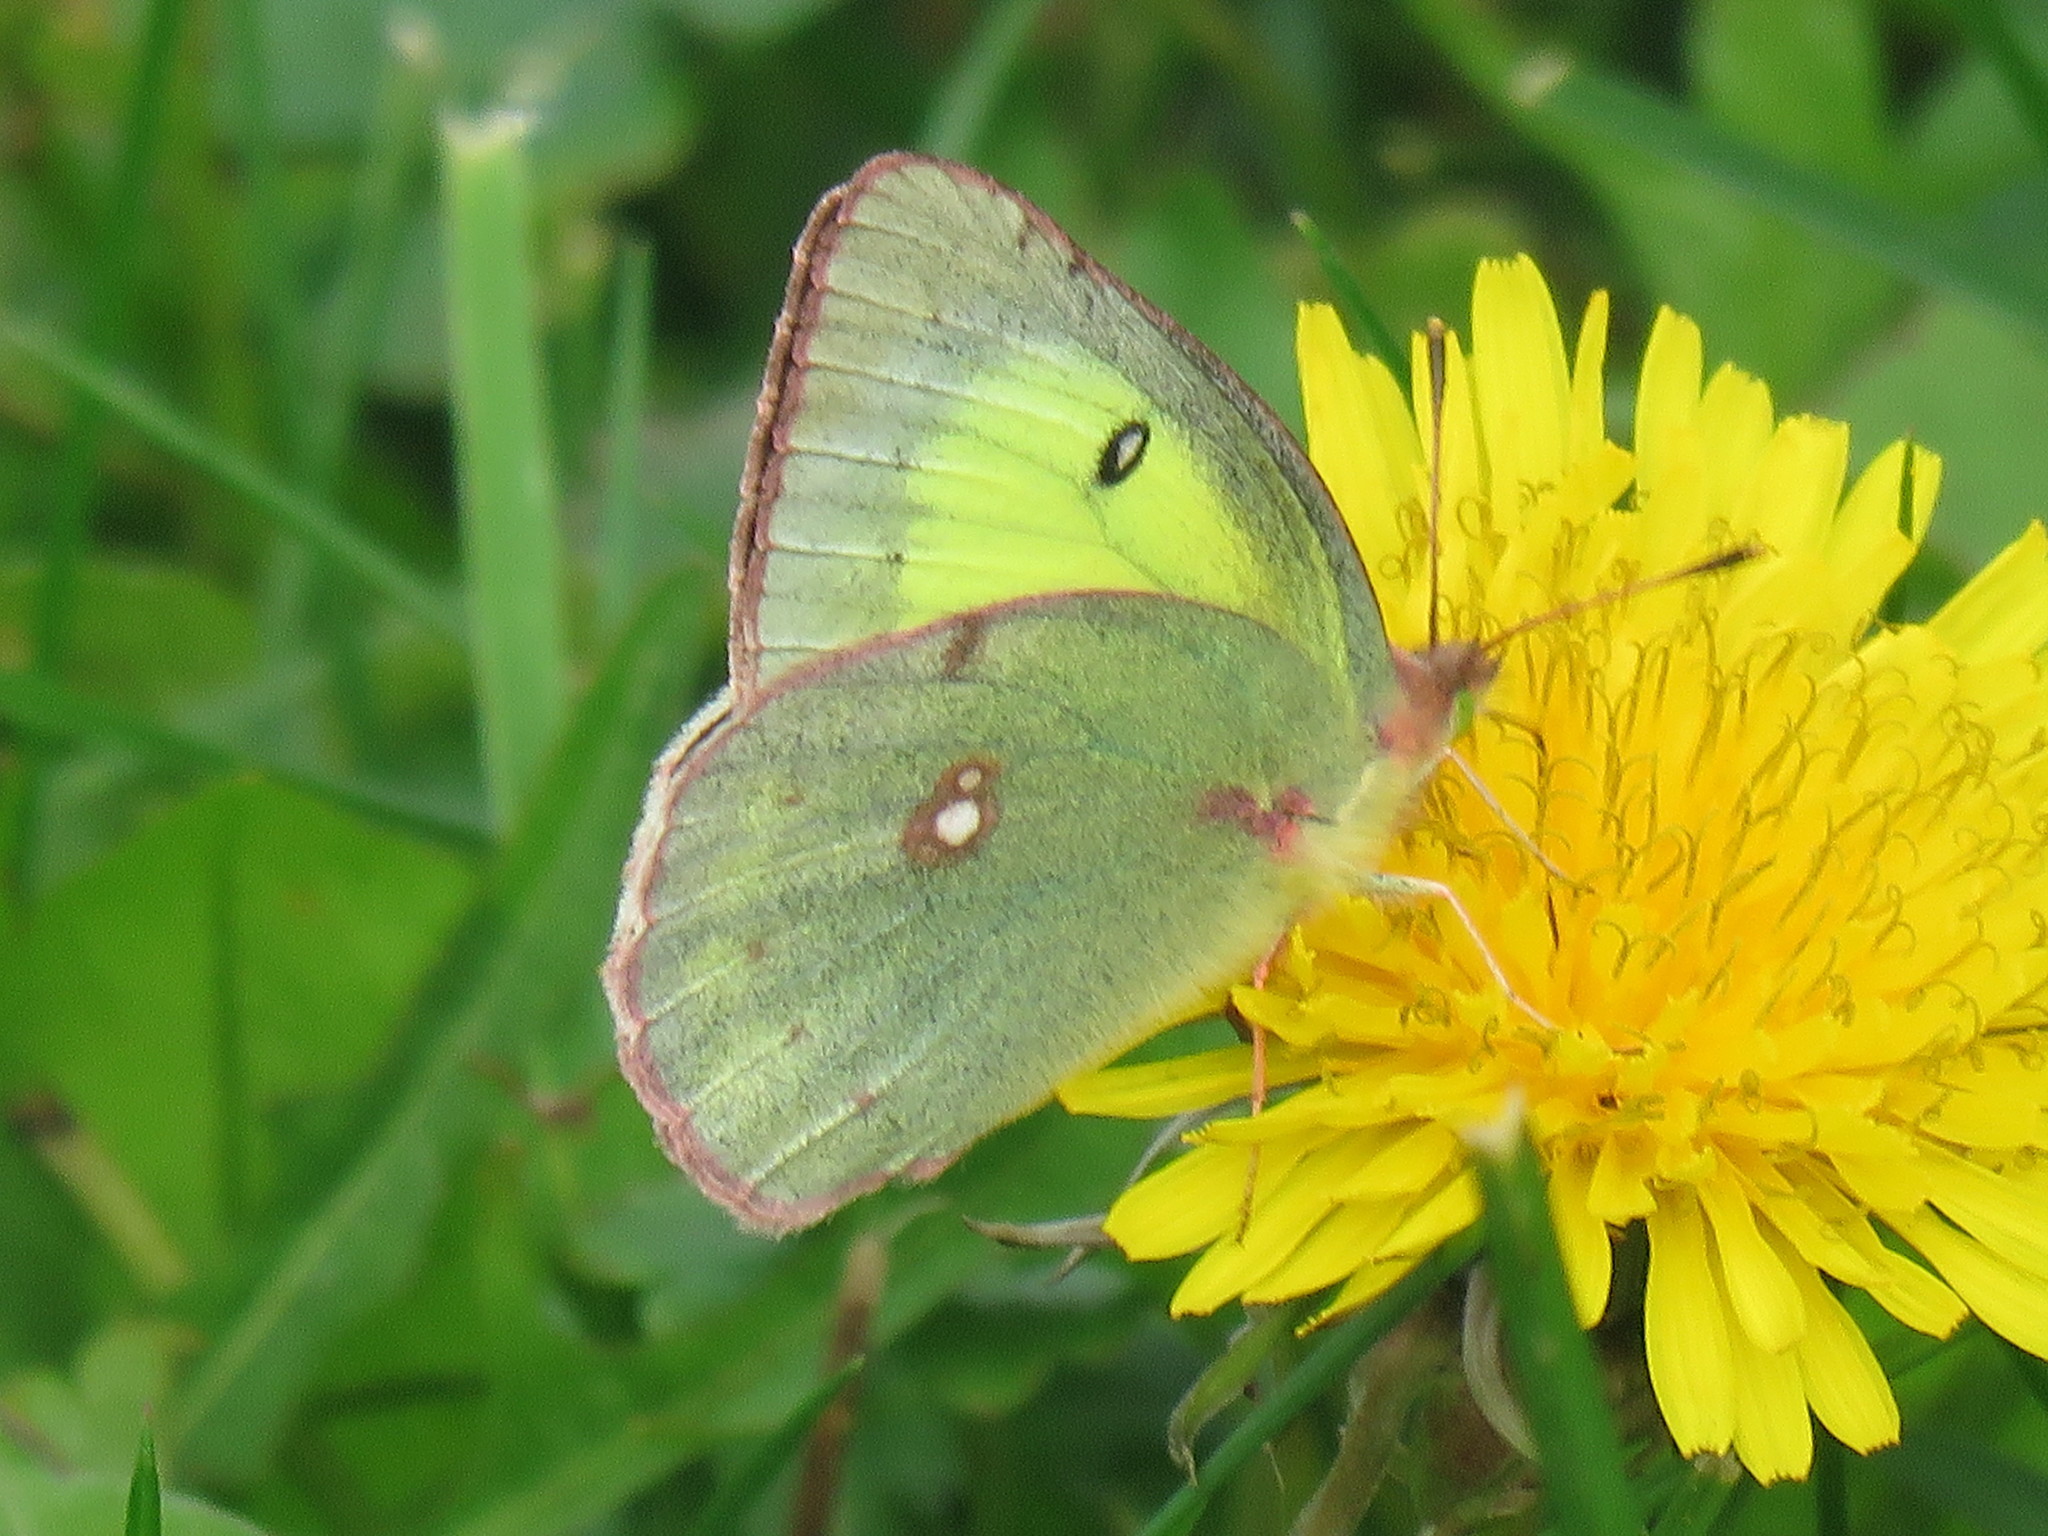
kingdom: Animalia
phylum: Arthropoda
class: Insecta
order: Lepidoptera
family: Pieridae
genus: Colias
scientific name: Colias philodice
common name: Clouded sulphur
